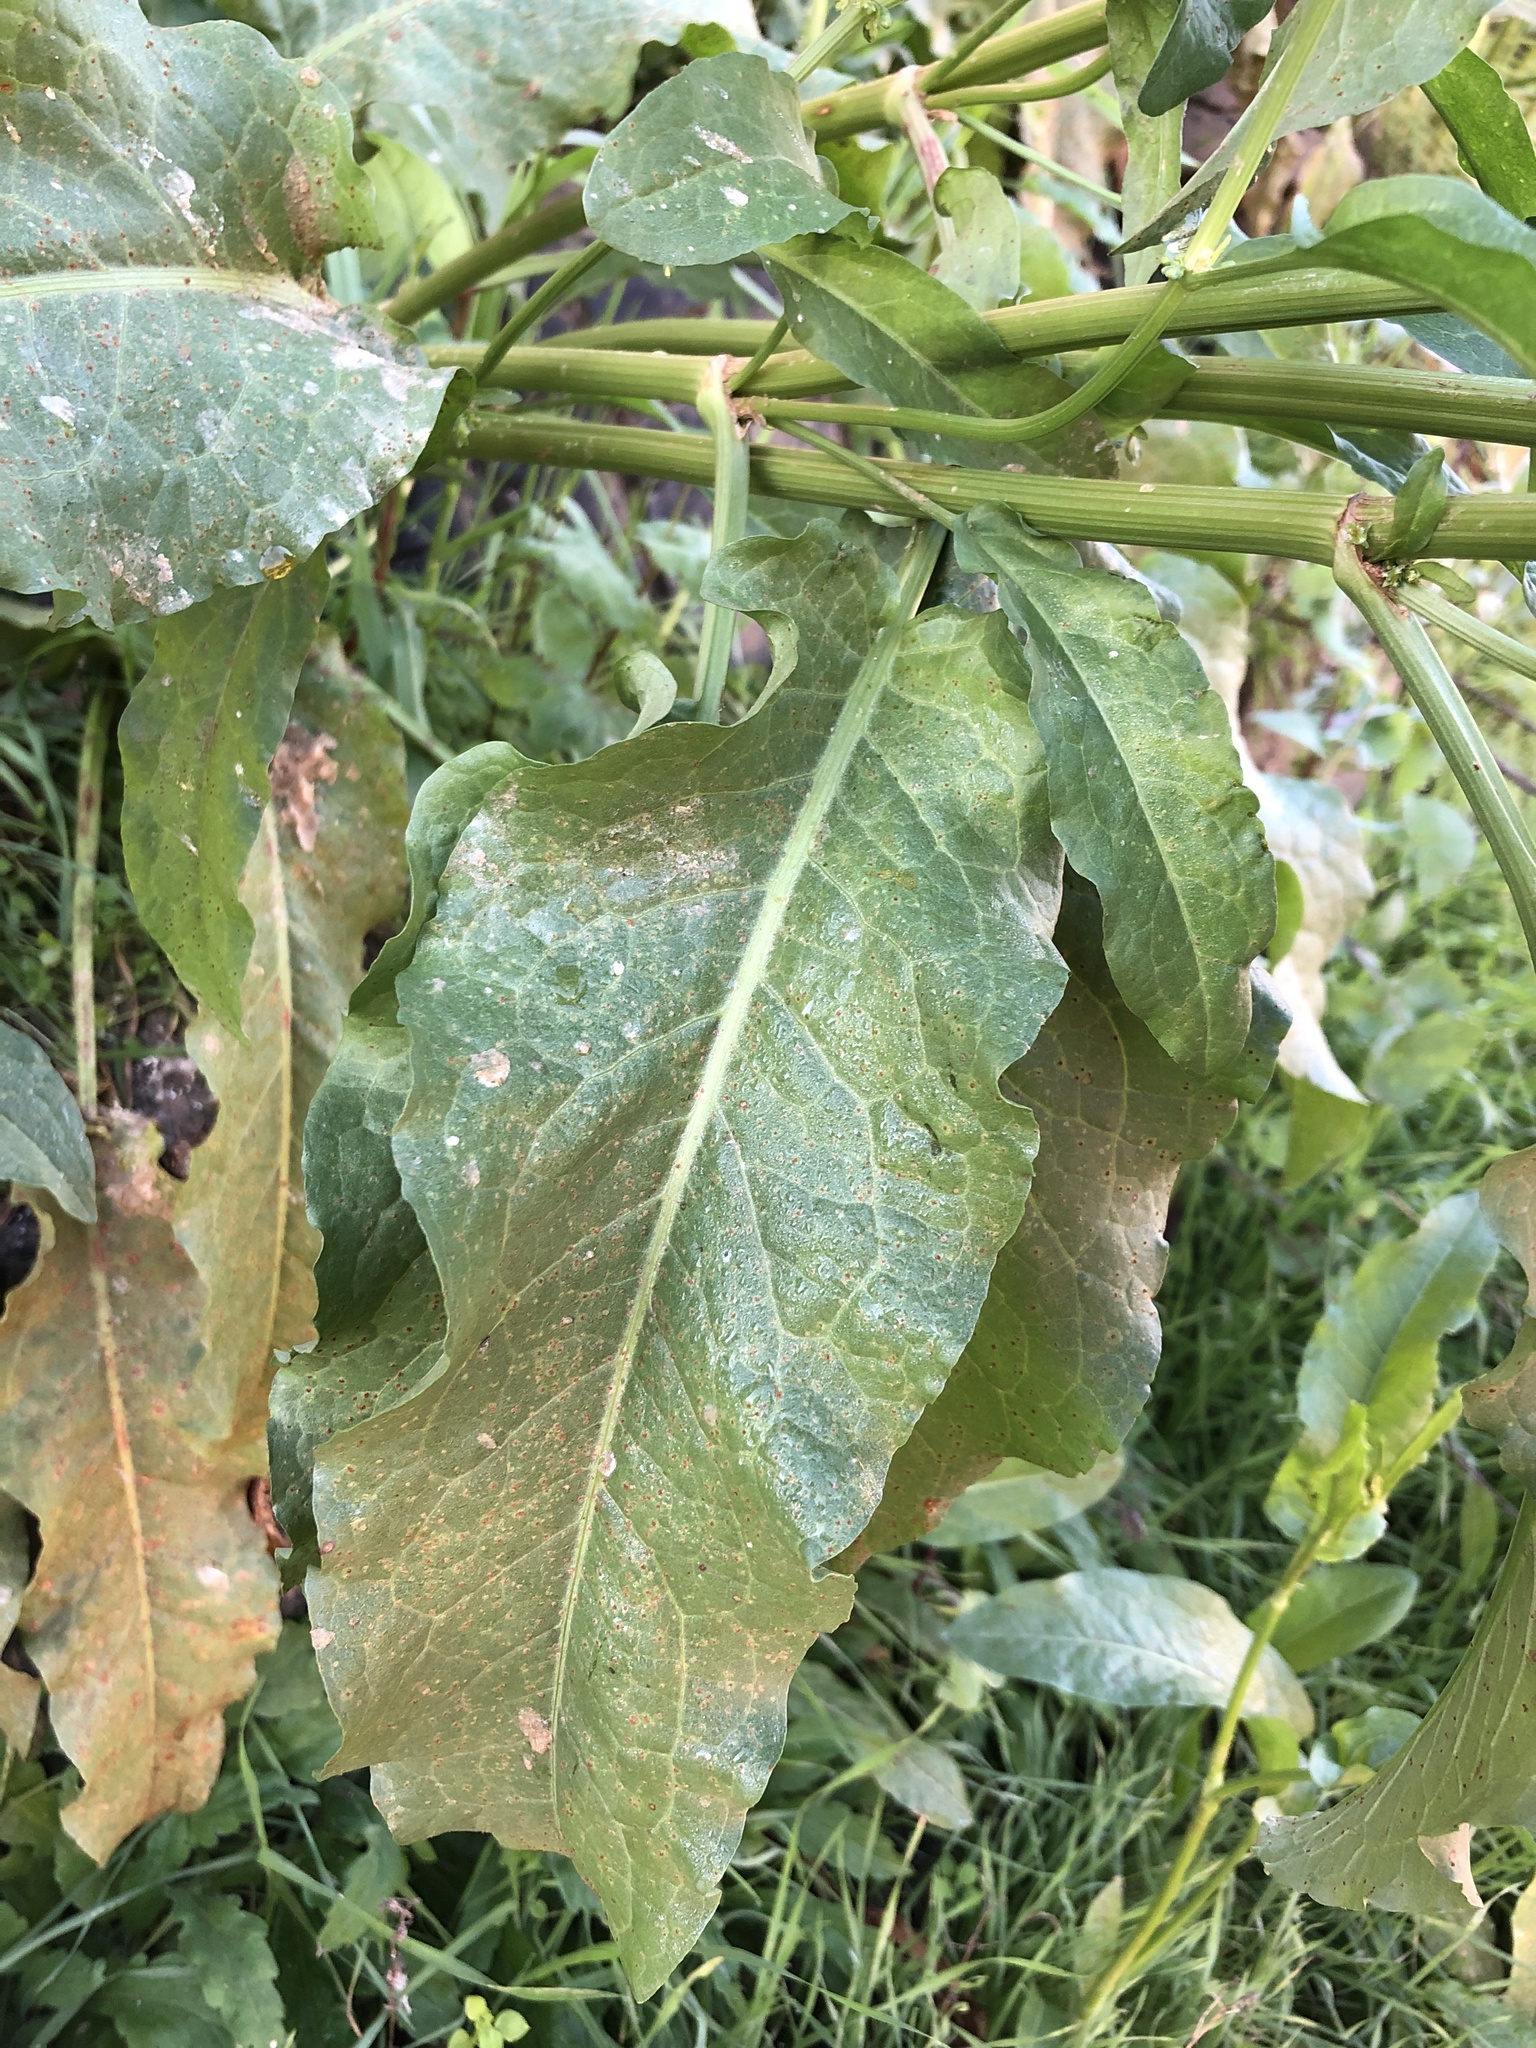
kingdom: Plantae
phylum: Tracheophyta
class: Magnoliopsida
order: Caryophyllales
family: Polygonaceae
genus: Rumex
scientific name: Rumex conglomeratus
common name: Clustered dock
